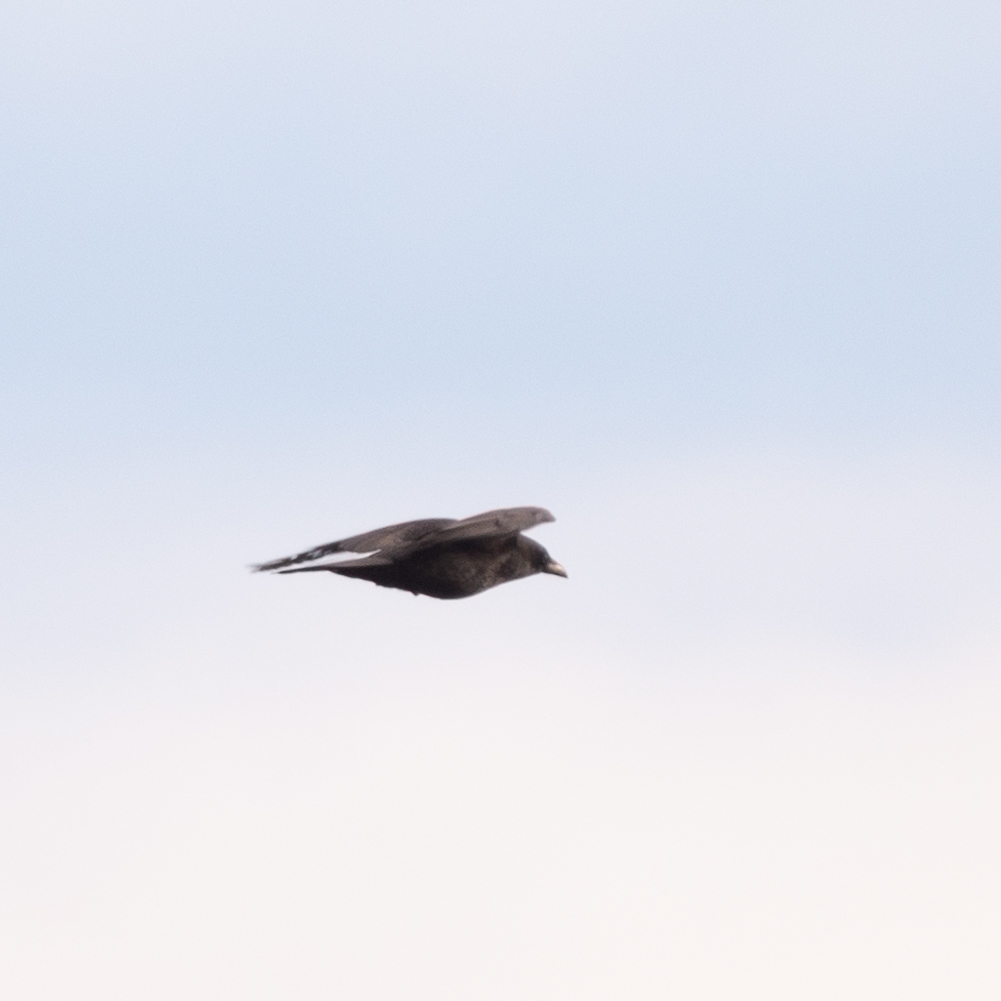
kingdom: Animalia
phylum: Chordata
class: Aves
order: Passeriformes
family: Corvidae
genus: Corvus
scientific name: Corvus corone
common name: Carrion crow
